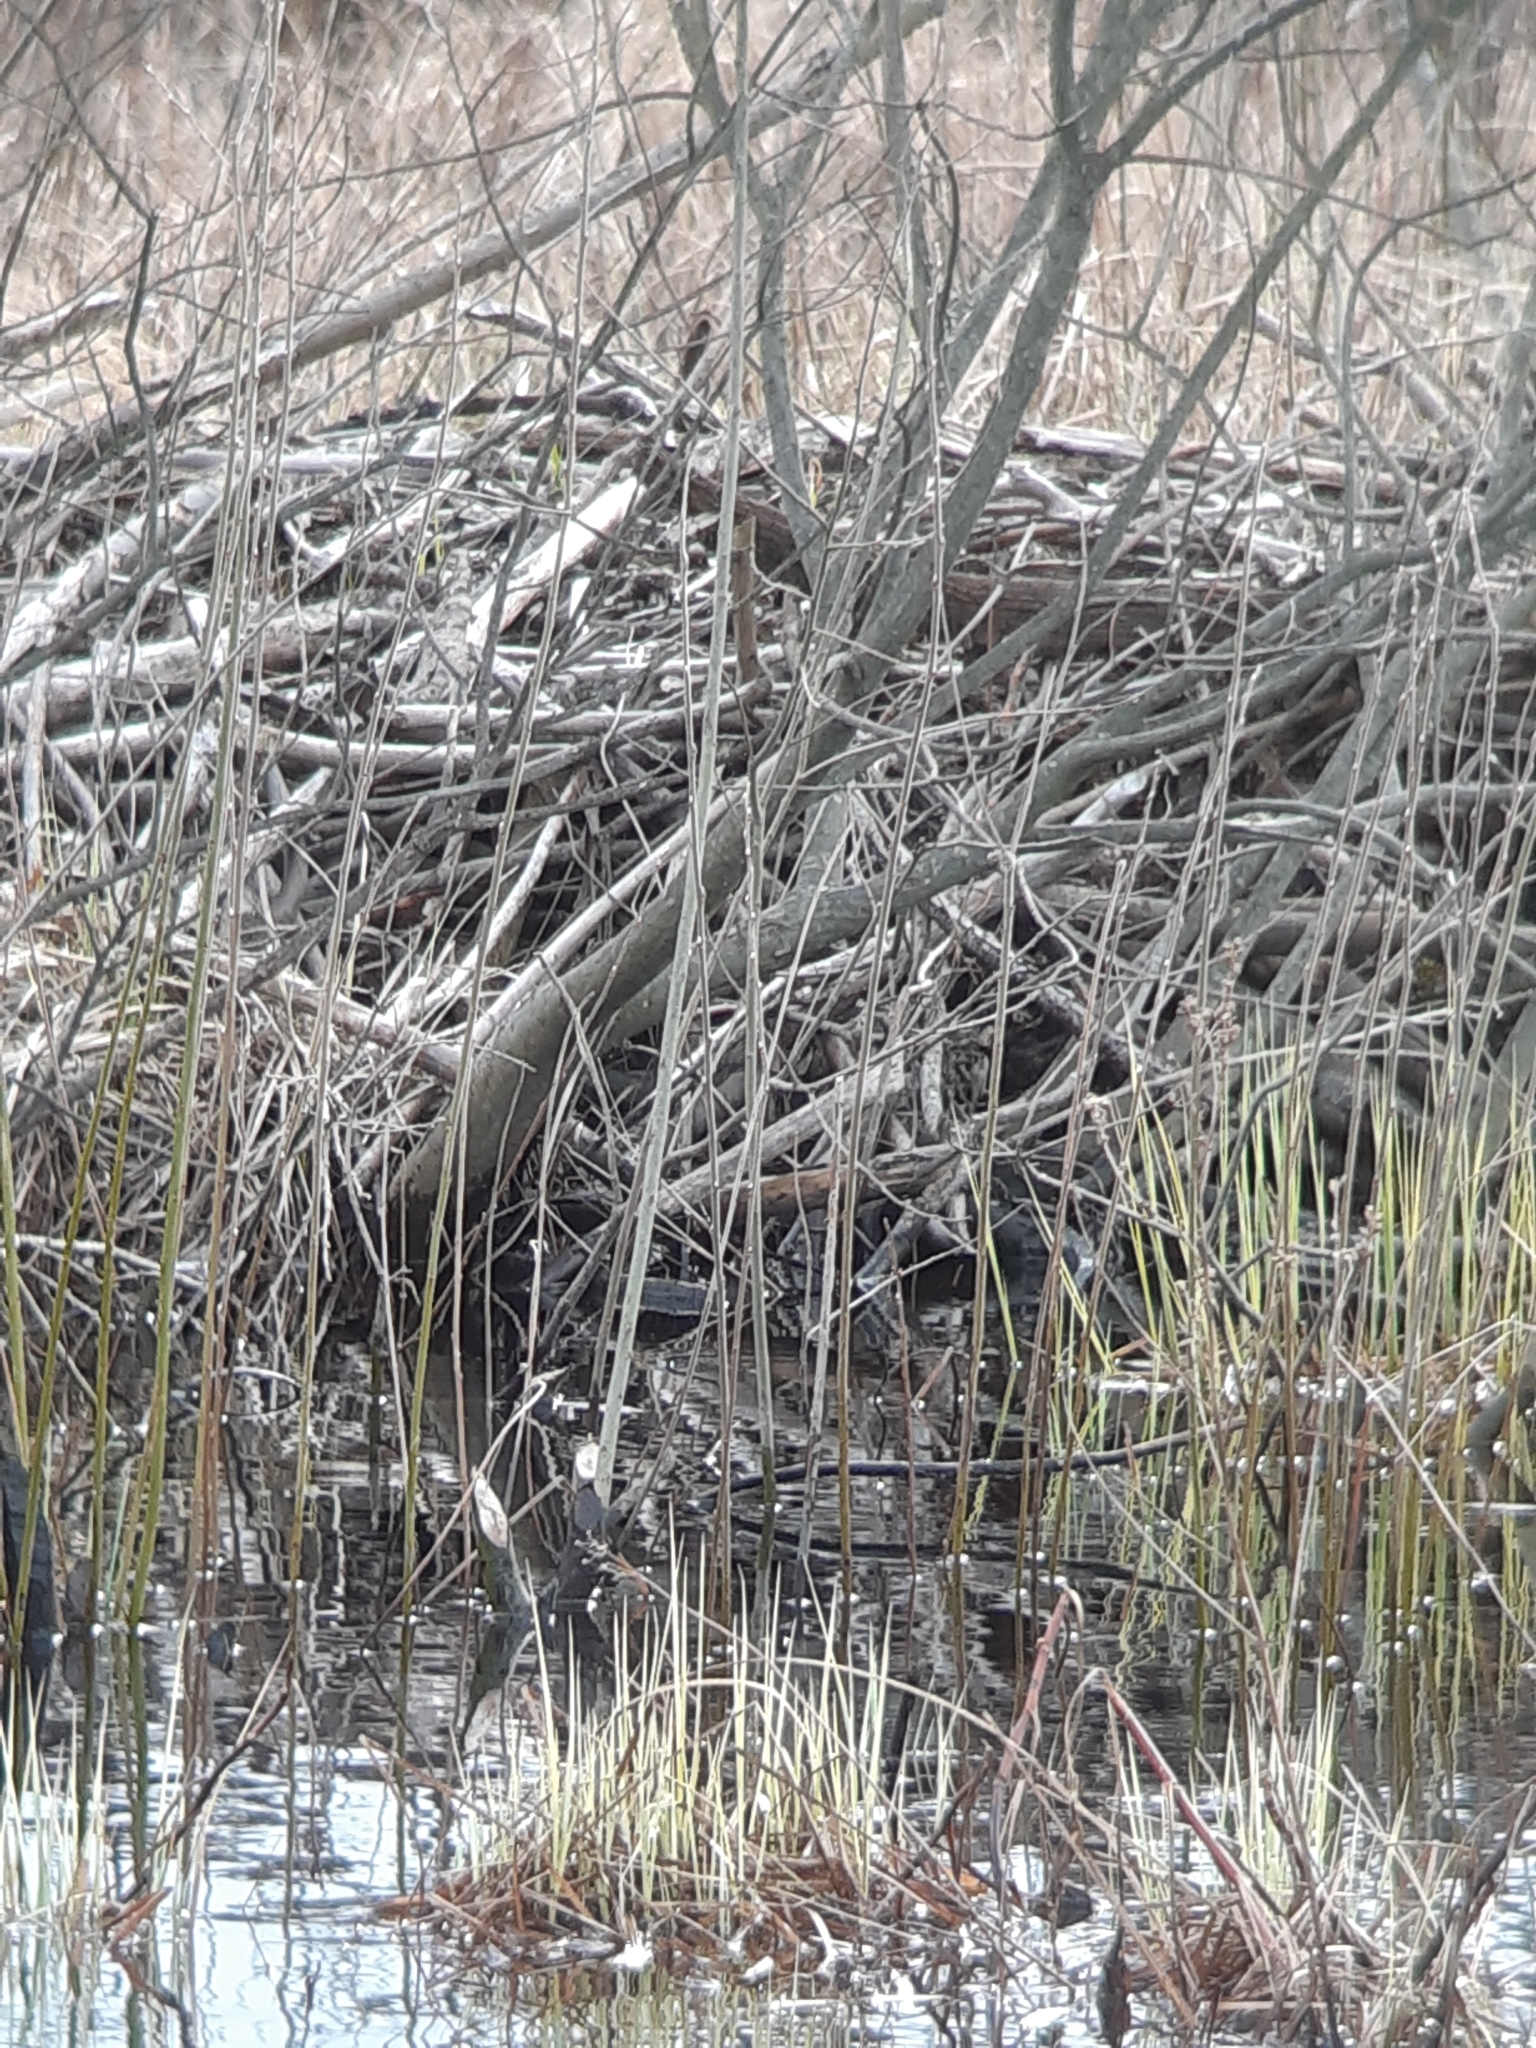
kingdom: Animalia
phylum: Chordata
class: Mammalia
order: Rodentia
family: Castoridae
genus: Castor
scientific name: Castor fiber
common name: Eurasian beaver
